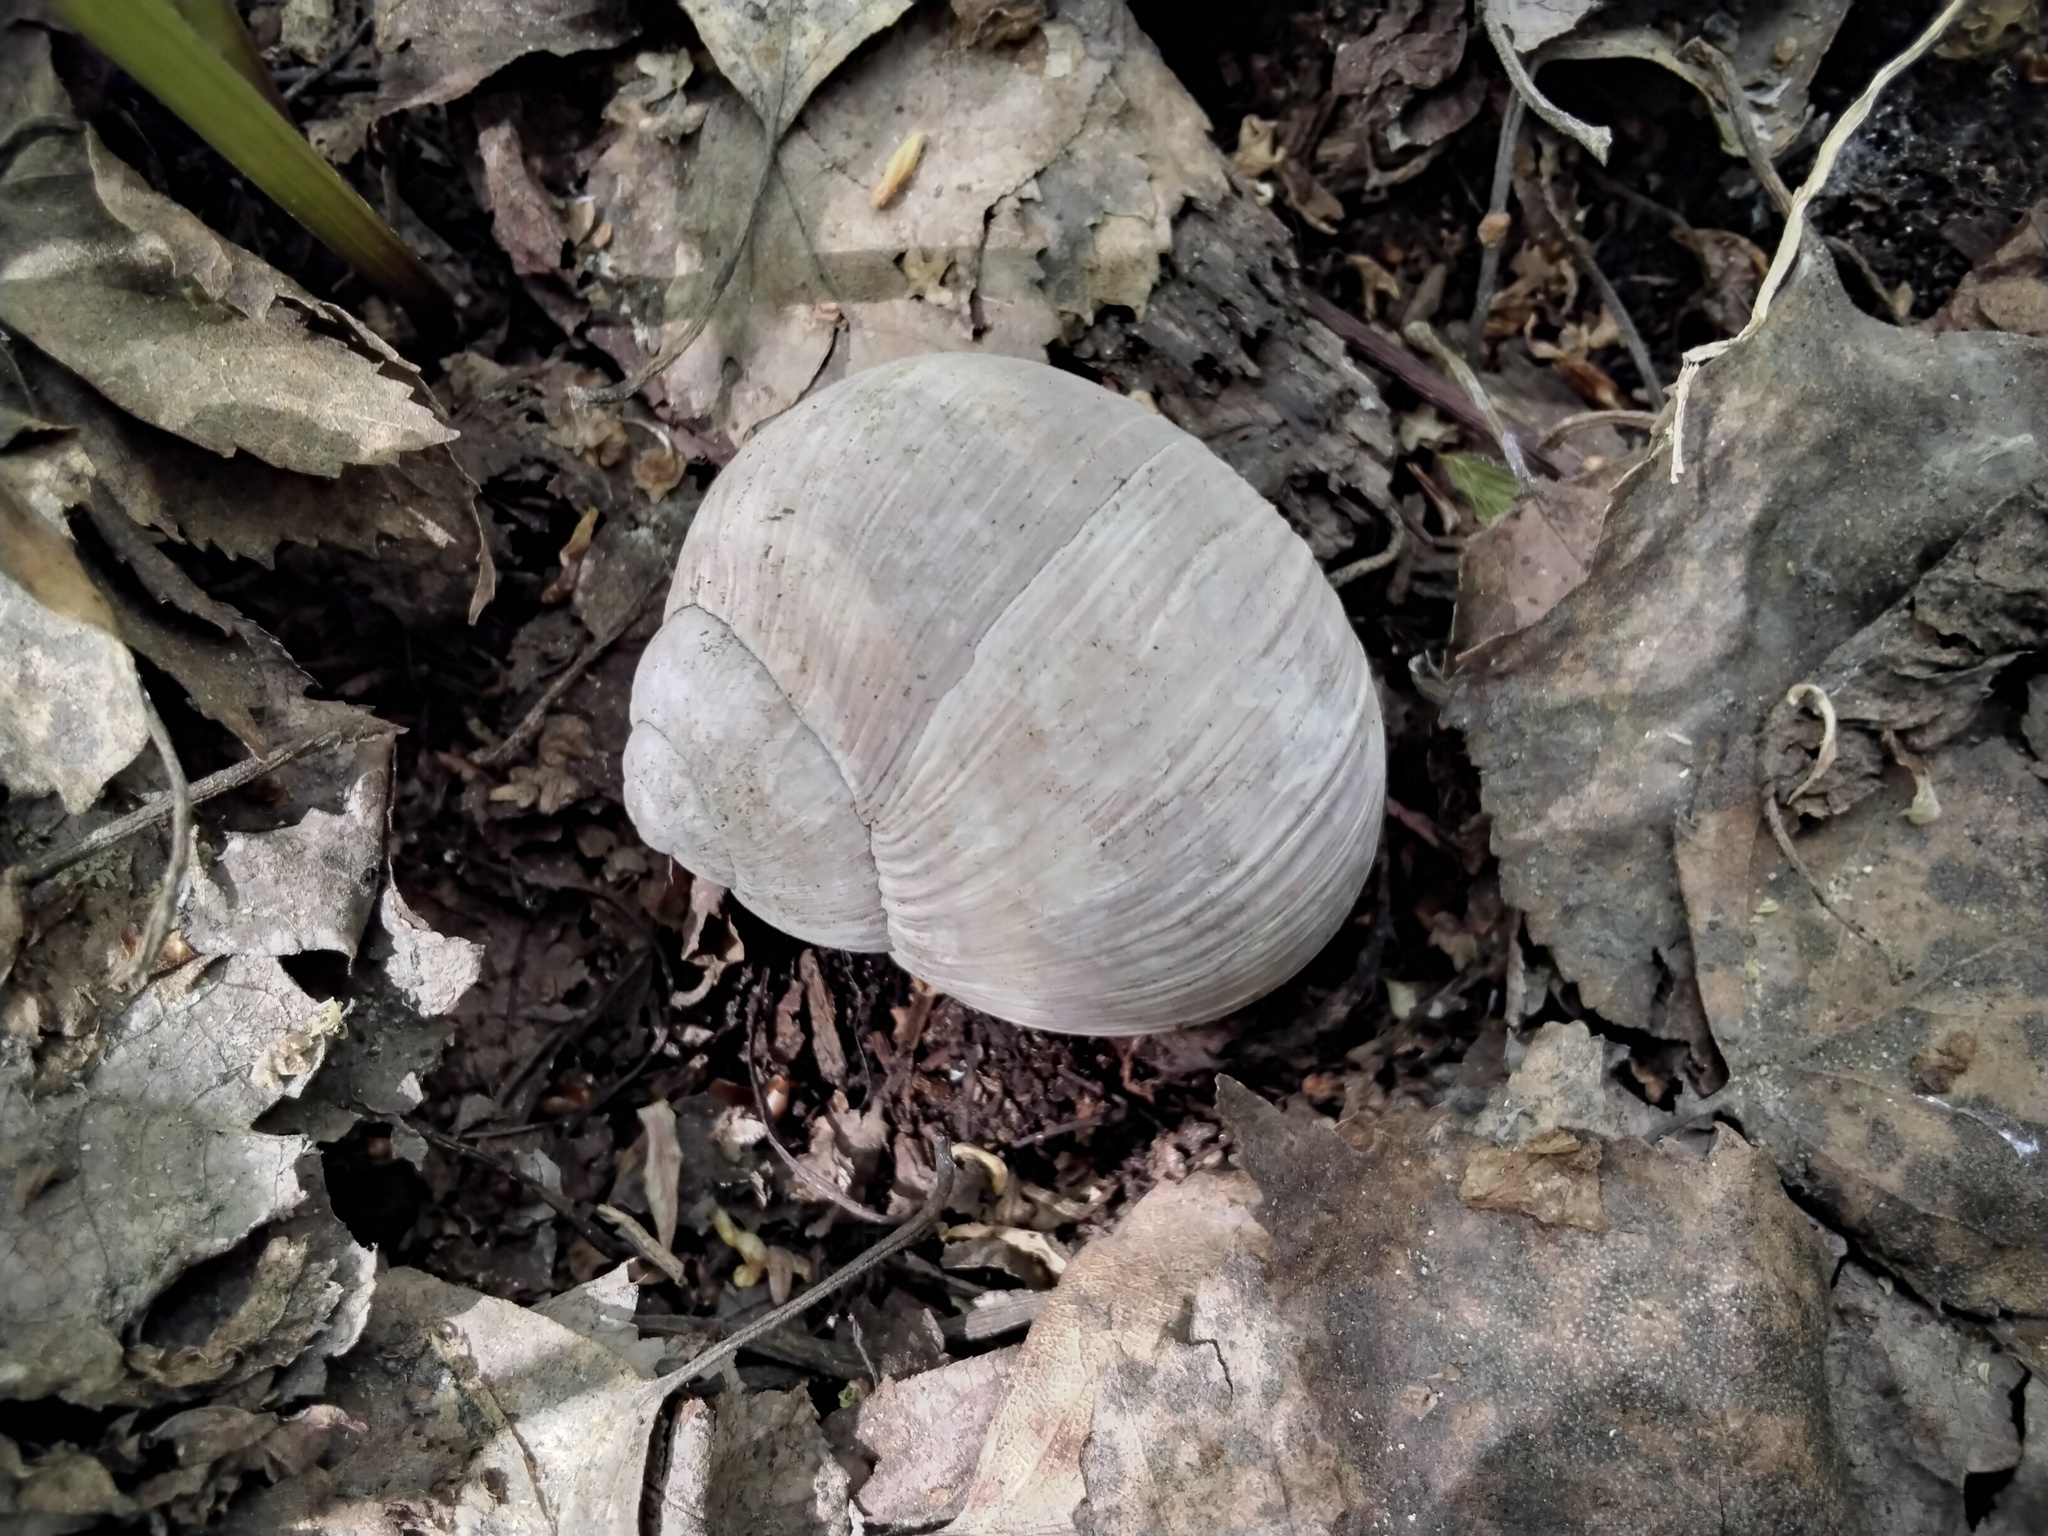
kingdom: Animalia
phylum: Mollusca
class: Gastropoda
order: Stylommatophora
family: Helicidae
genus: Helix
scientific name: Helix pomatia
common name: Roman snail
